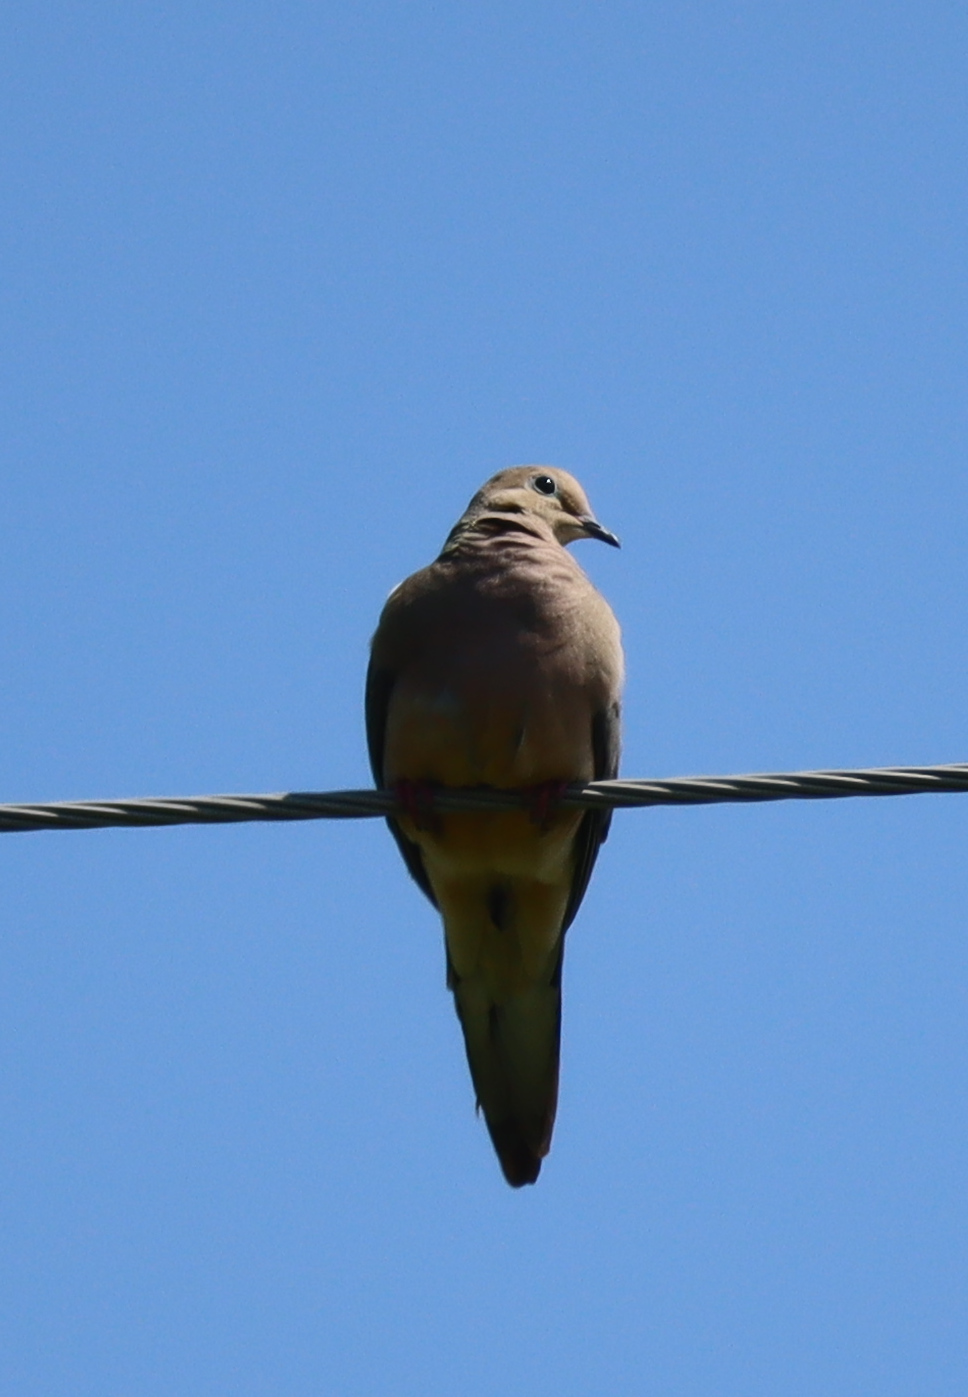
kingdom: Animalia
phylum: Chordata
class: Aves
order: Columbiformes
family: Columbidae
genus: Zenaida
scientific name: Zenaida macroura
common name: Mourning dove
